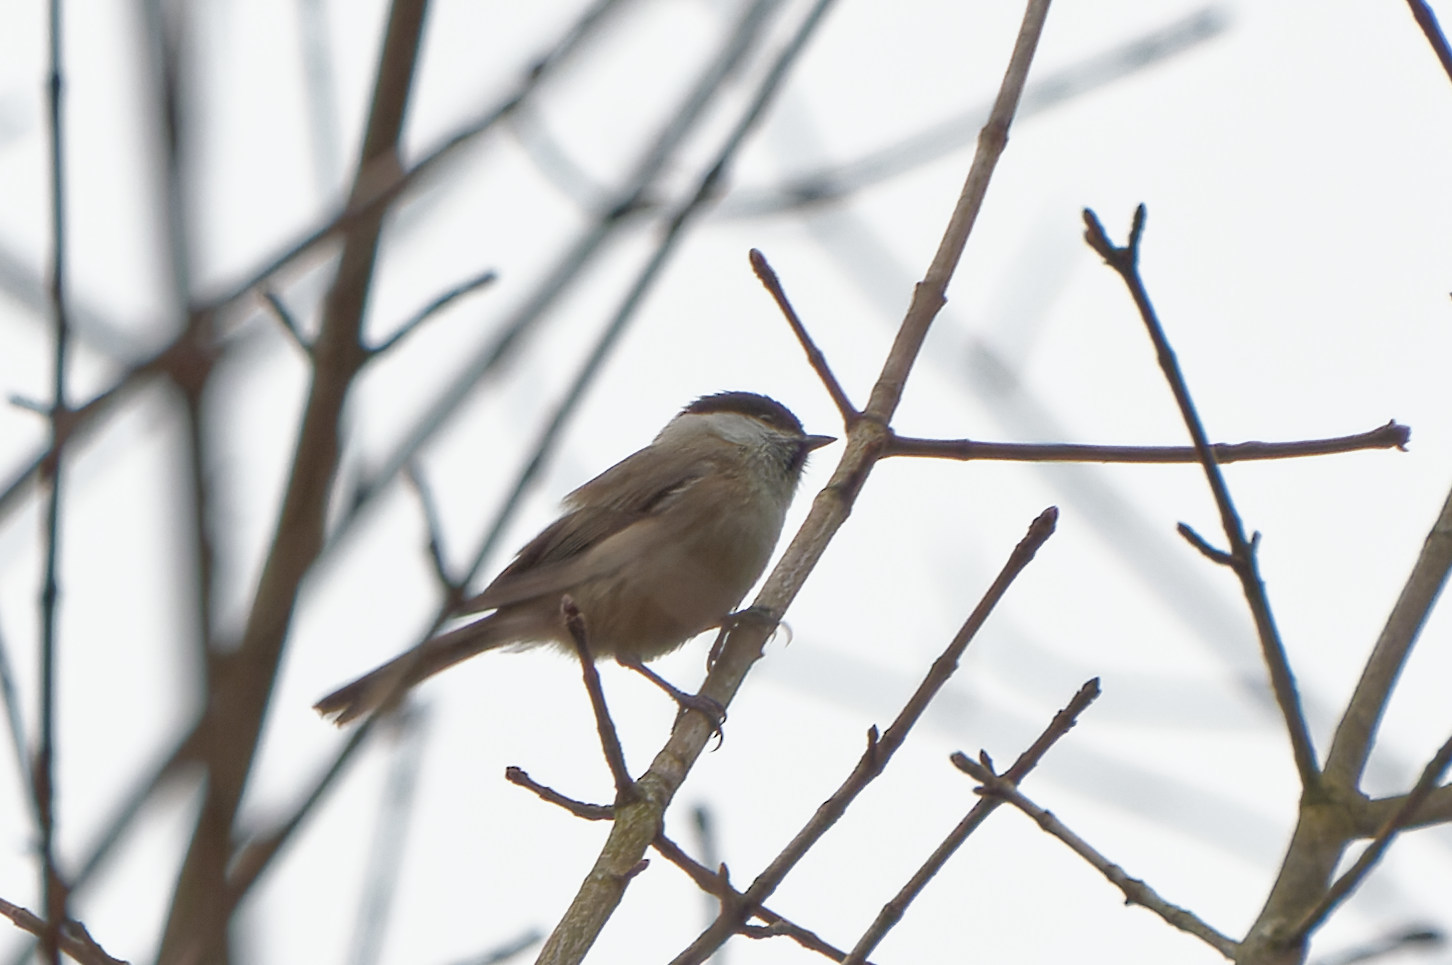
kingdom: Animalia
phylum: Chordata
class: Aves
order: Passeriformes
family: Paridae
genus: Poecile
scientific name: Poecile palustris
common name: Marsh tit
